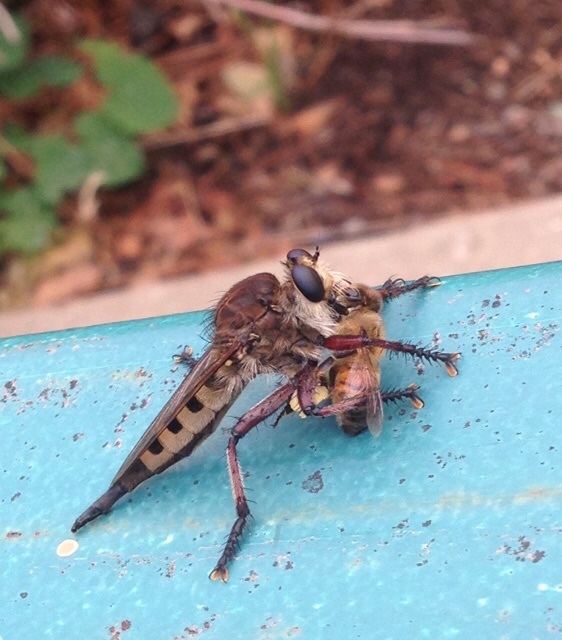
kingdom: Animalia
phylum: Arthropoda
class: Insecta
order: Diptera
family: Asilidae
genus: Promachus
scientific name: Promachus hinei
